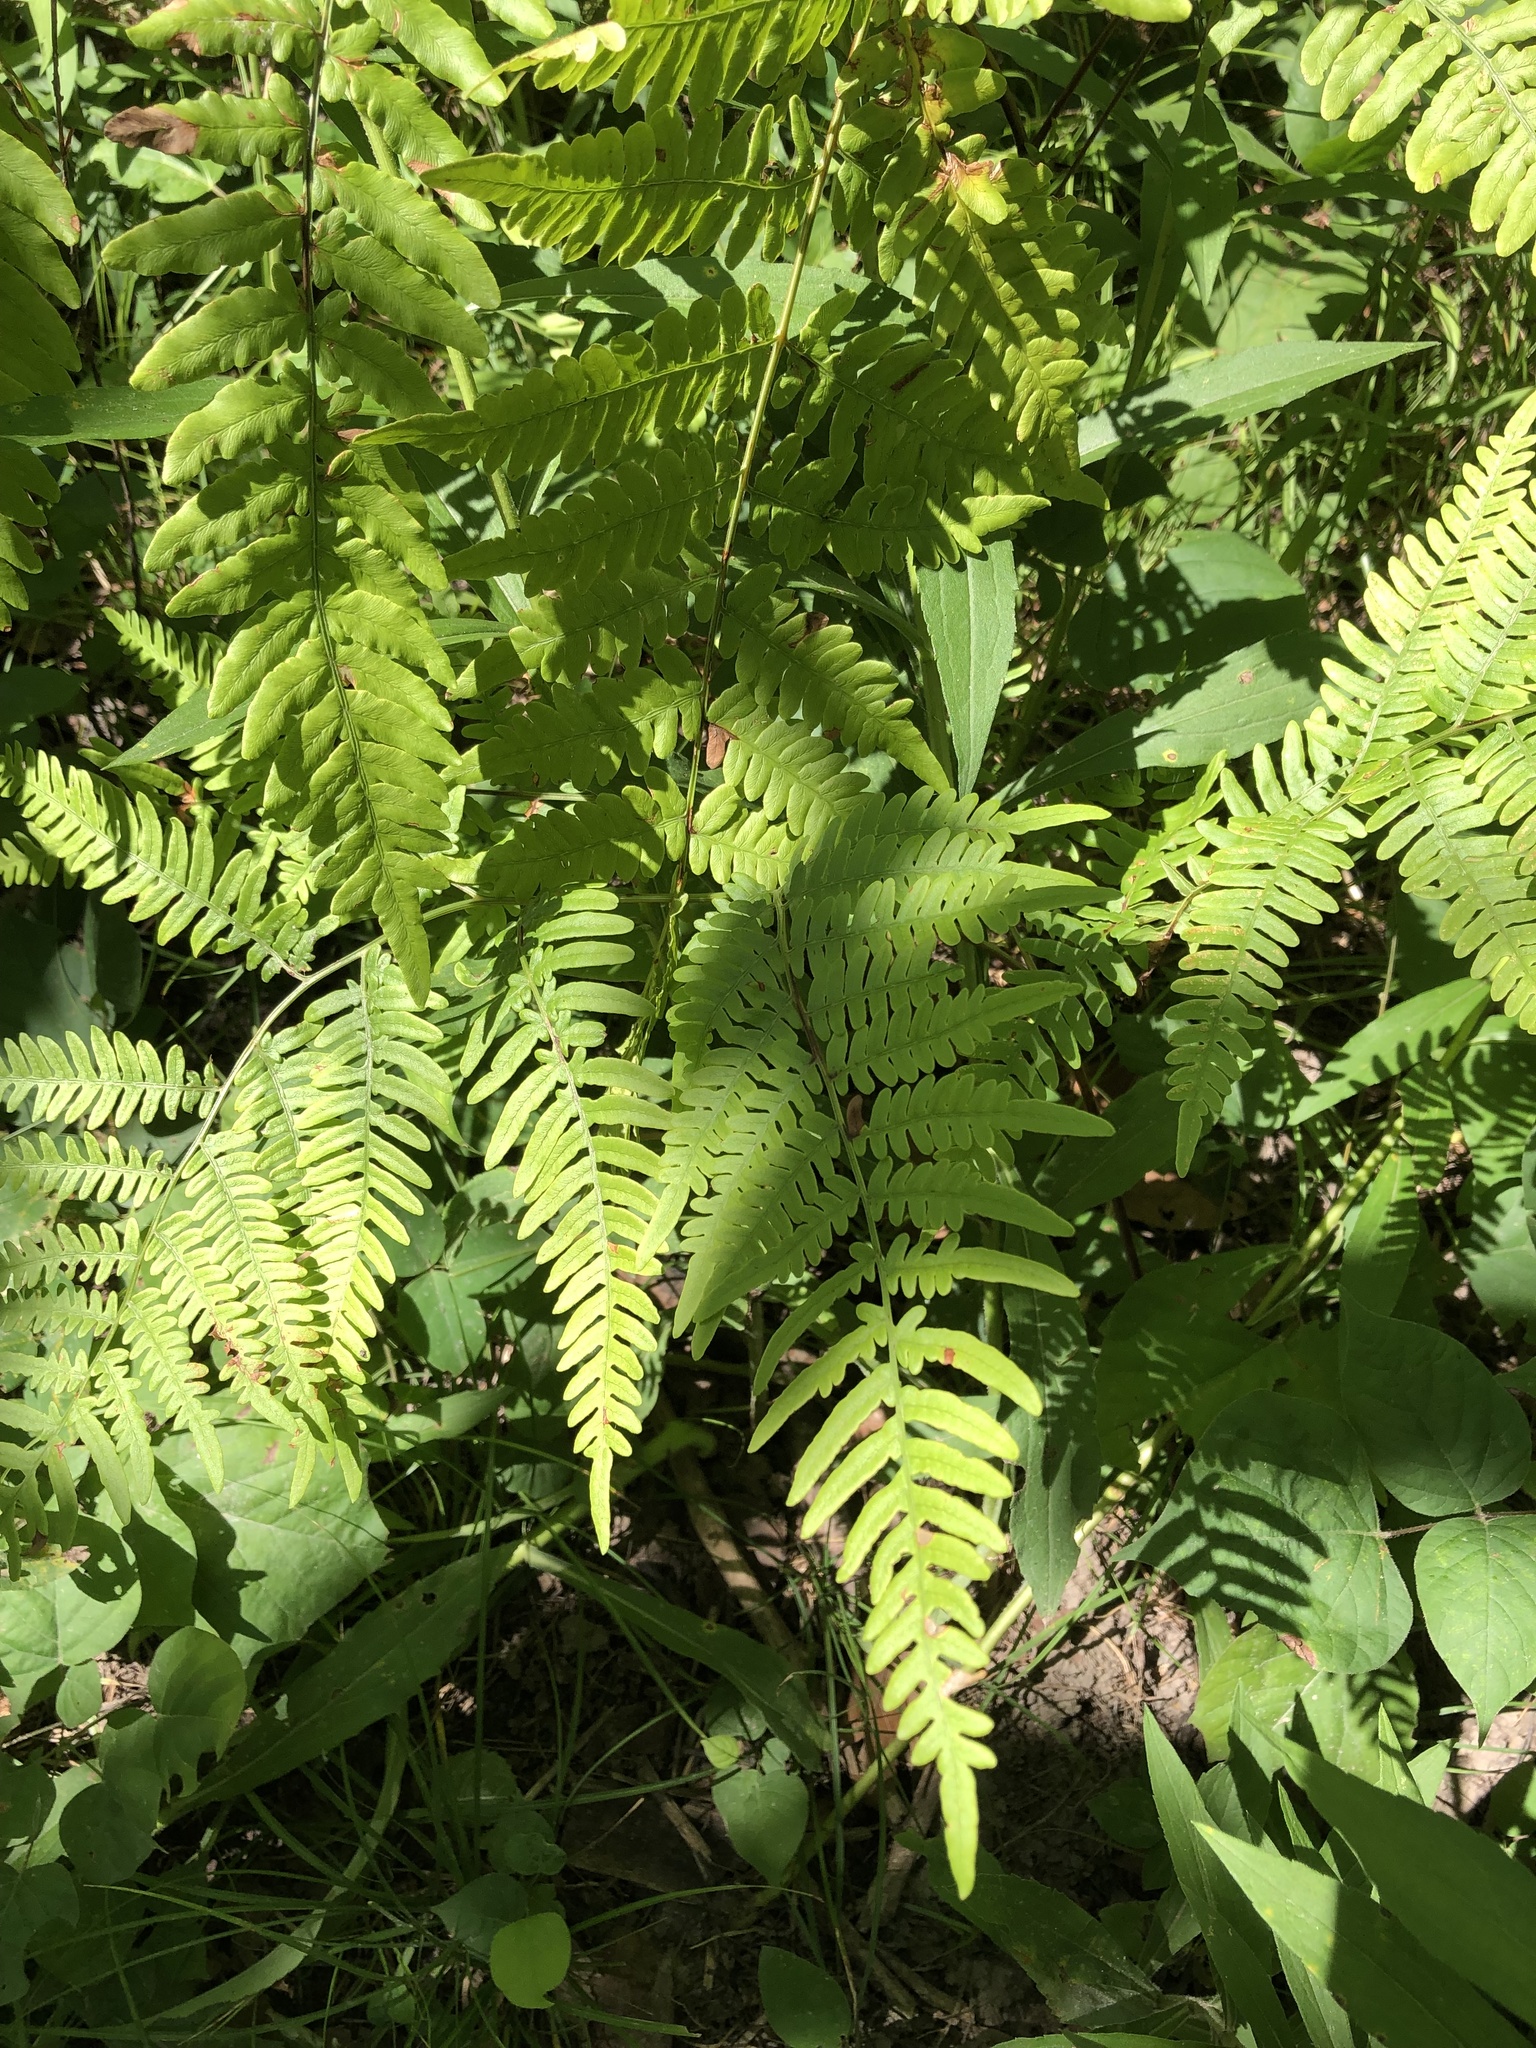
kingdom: Plantae
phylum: Tracheophyta
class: Polypodiopsida
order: Polypodiales
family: Dennstaedtiaceae
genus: Pteridium
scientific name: Pteridium aquilinum
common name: Bracken
